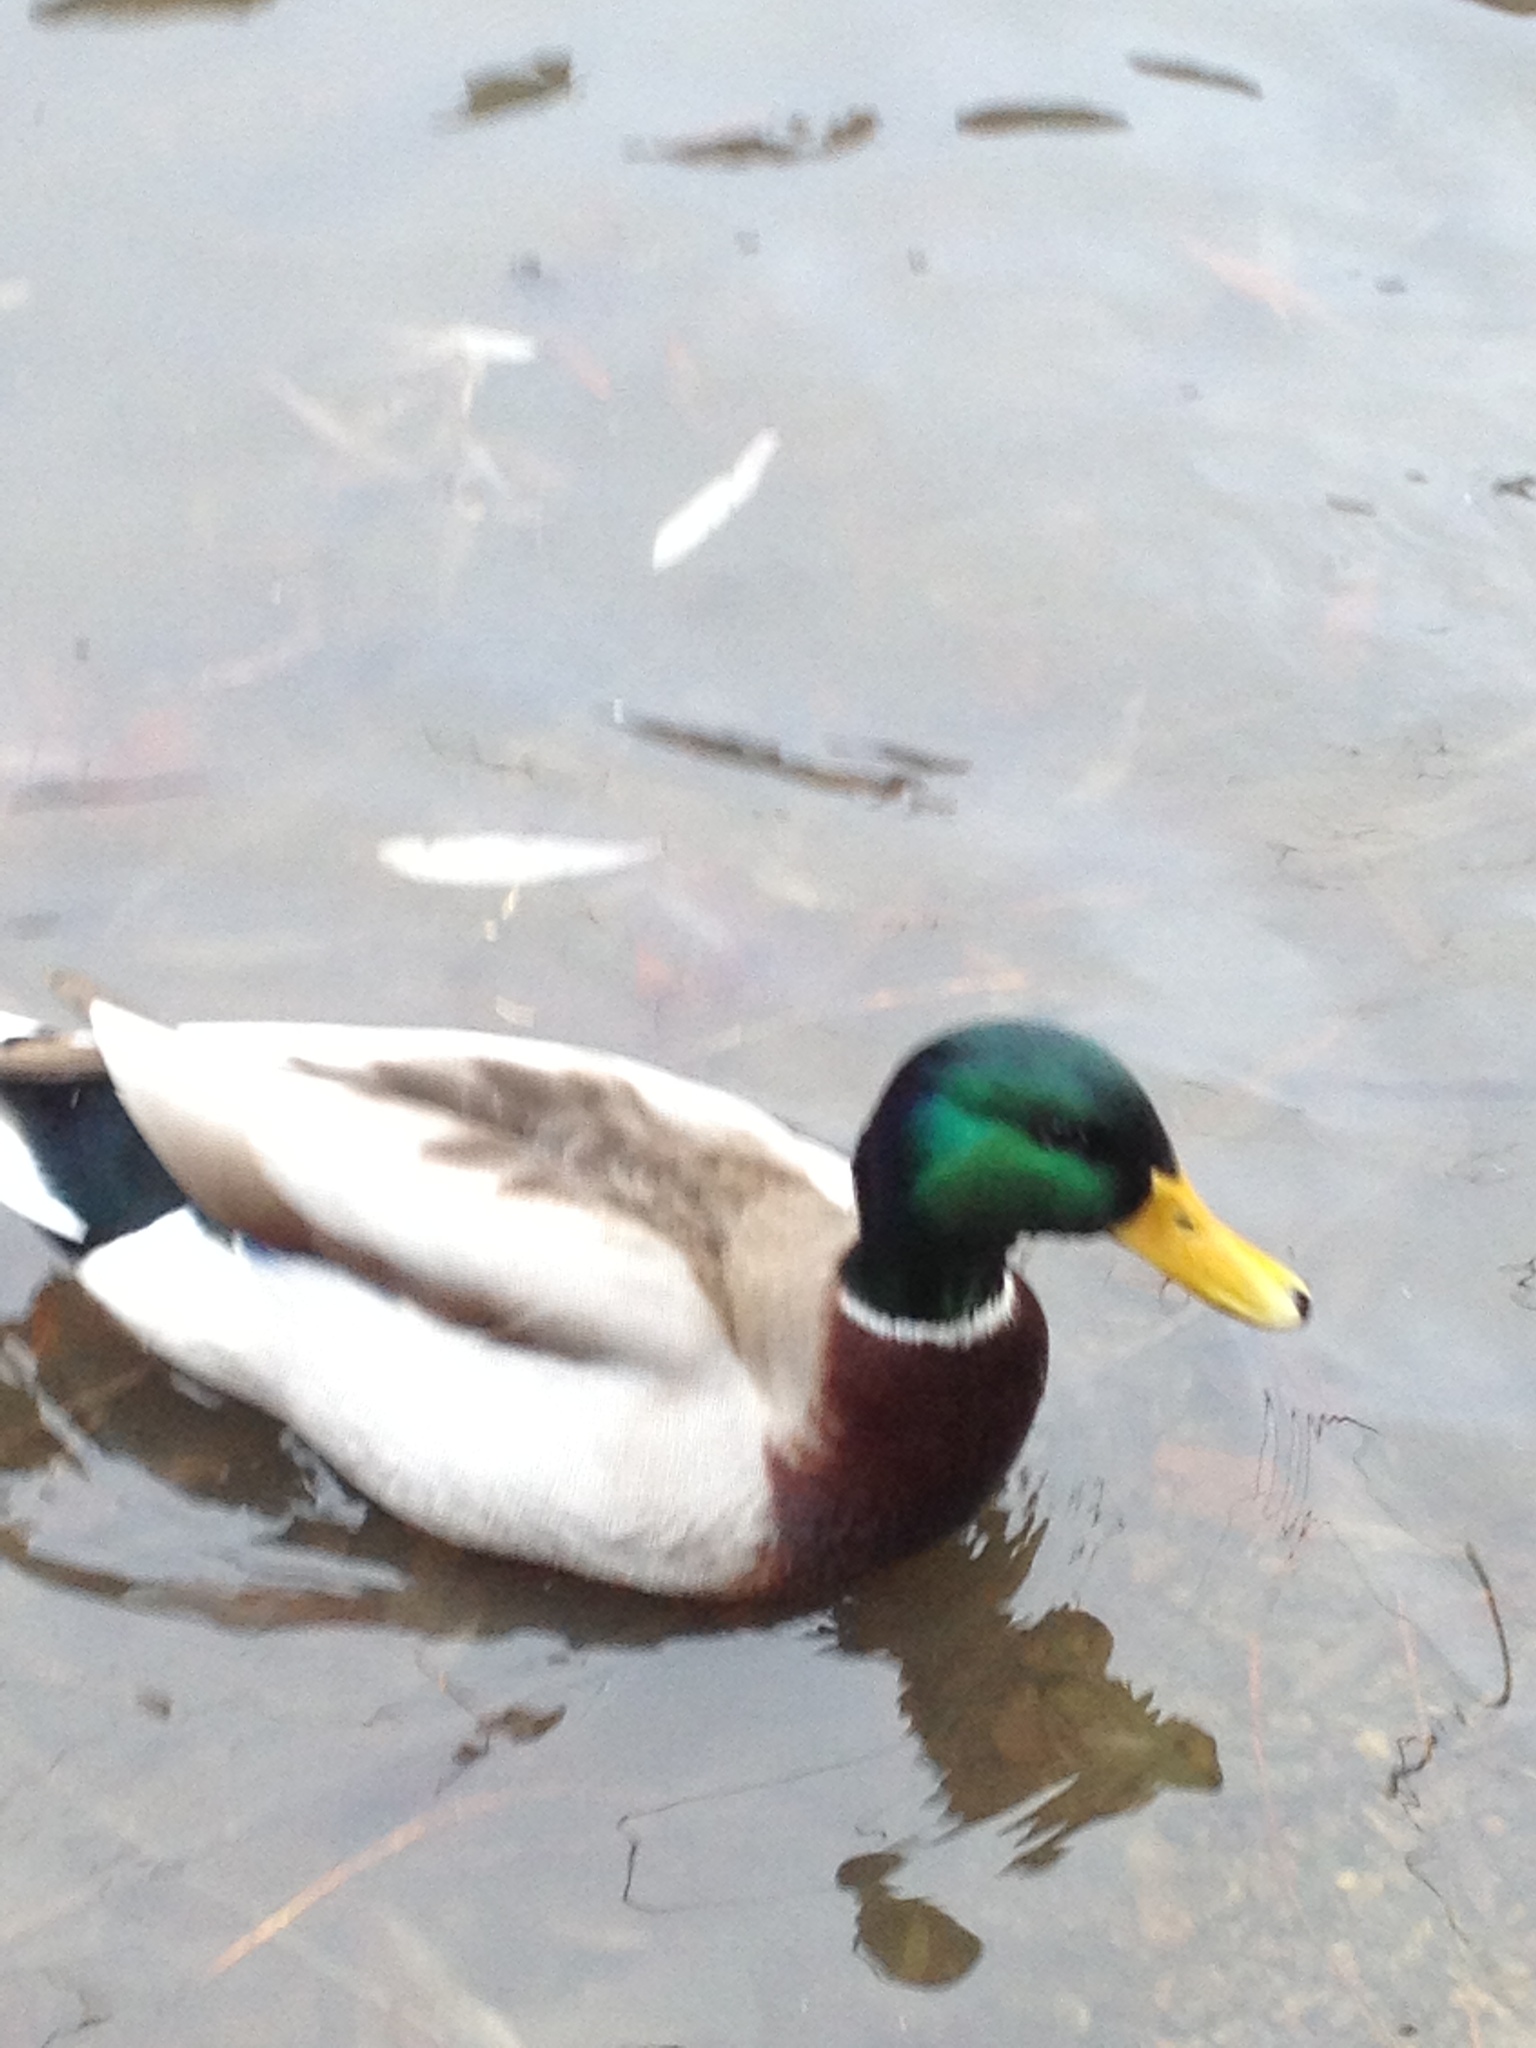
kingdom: Animalia
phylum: Chordata
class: Aves
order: Anseriformes
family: Anatidae
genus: Anas
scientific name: Anas platyrhynchos
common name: Mallard
